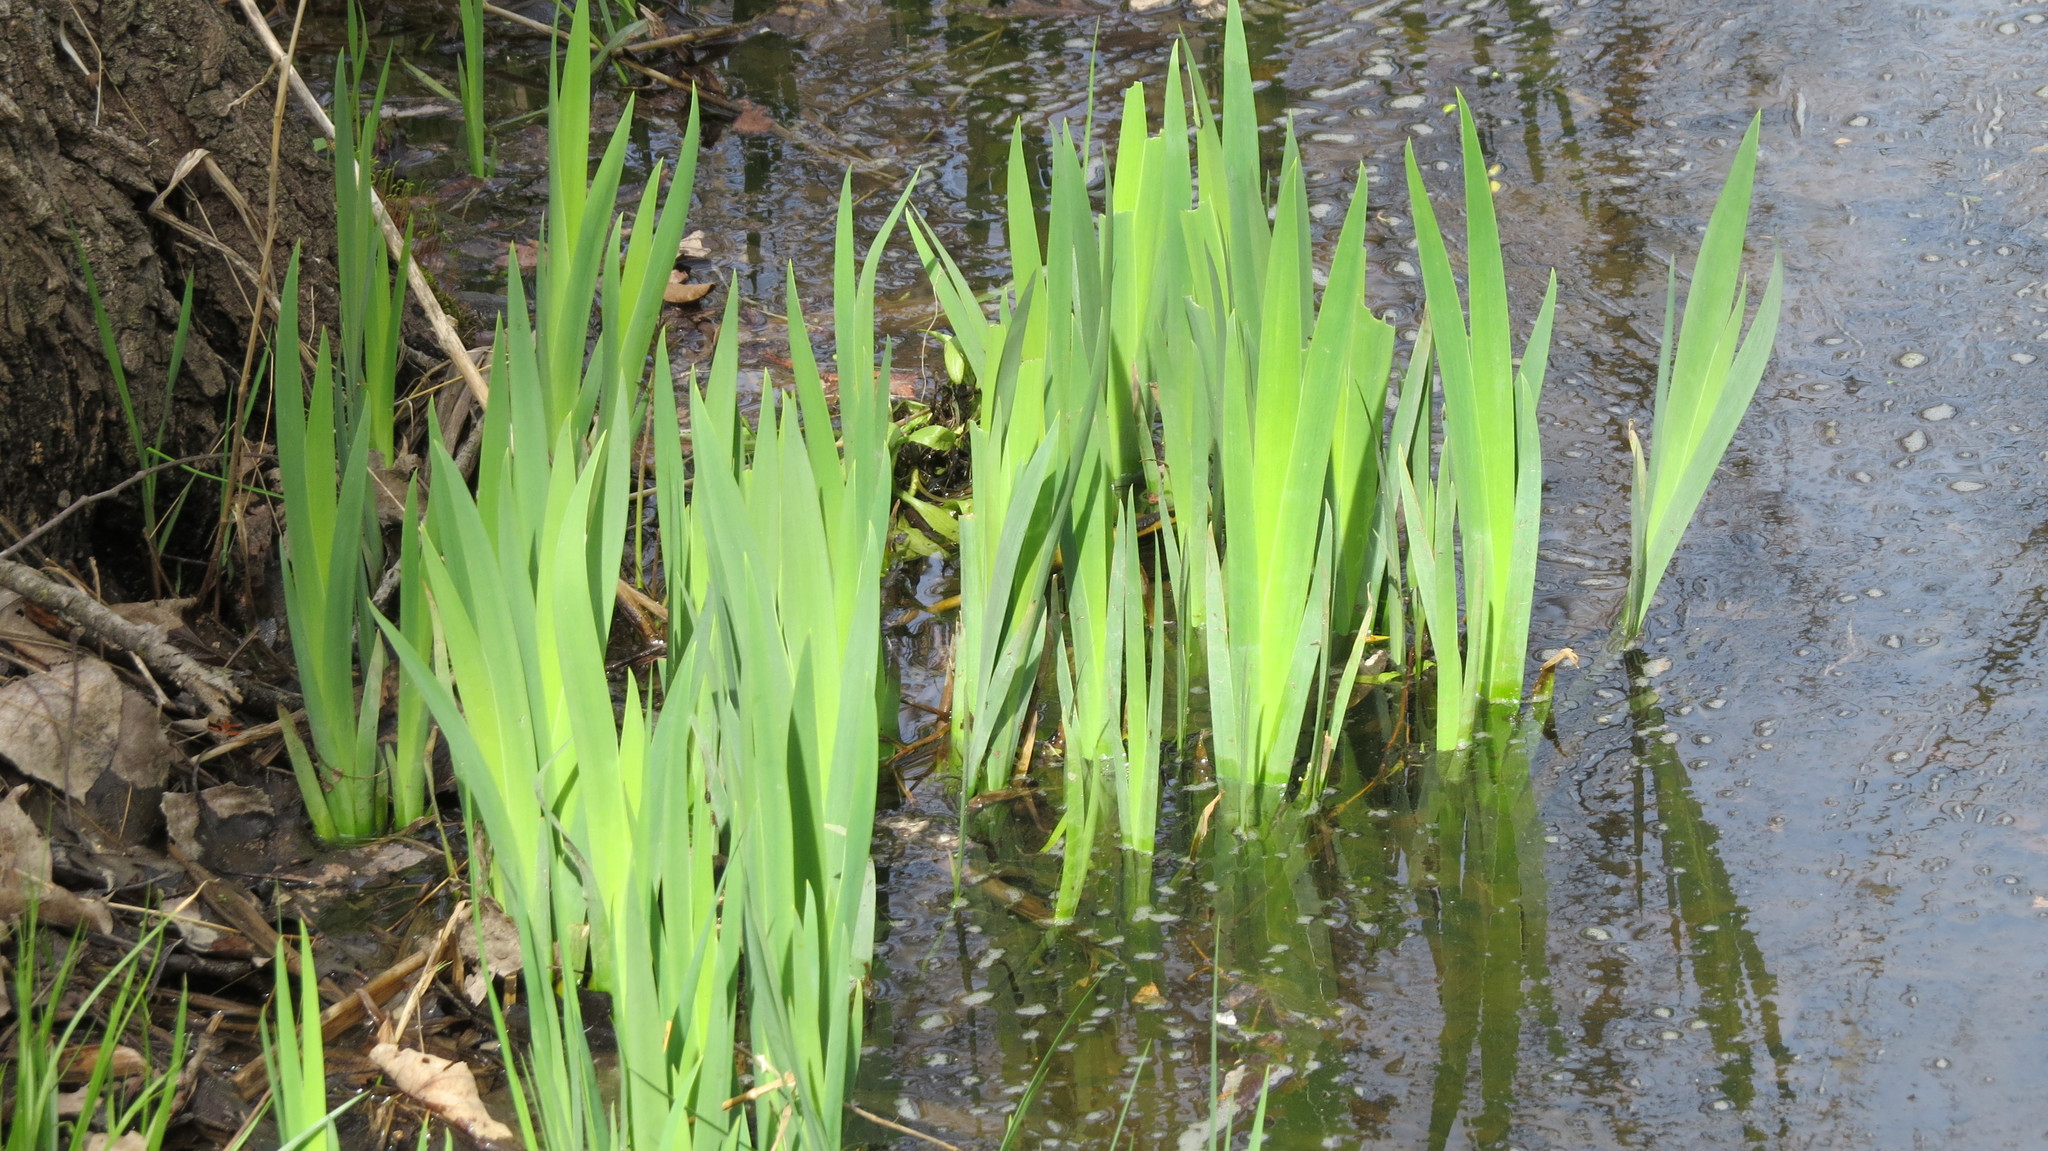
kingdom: Plantae
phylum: Tracheophyta
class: Liliopsida
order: Asparagales
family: Iridaceae
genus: Iris
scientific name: Iris pseudacorus
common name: Yellow flag
